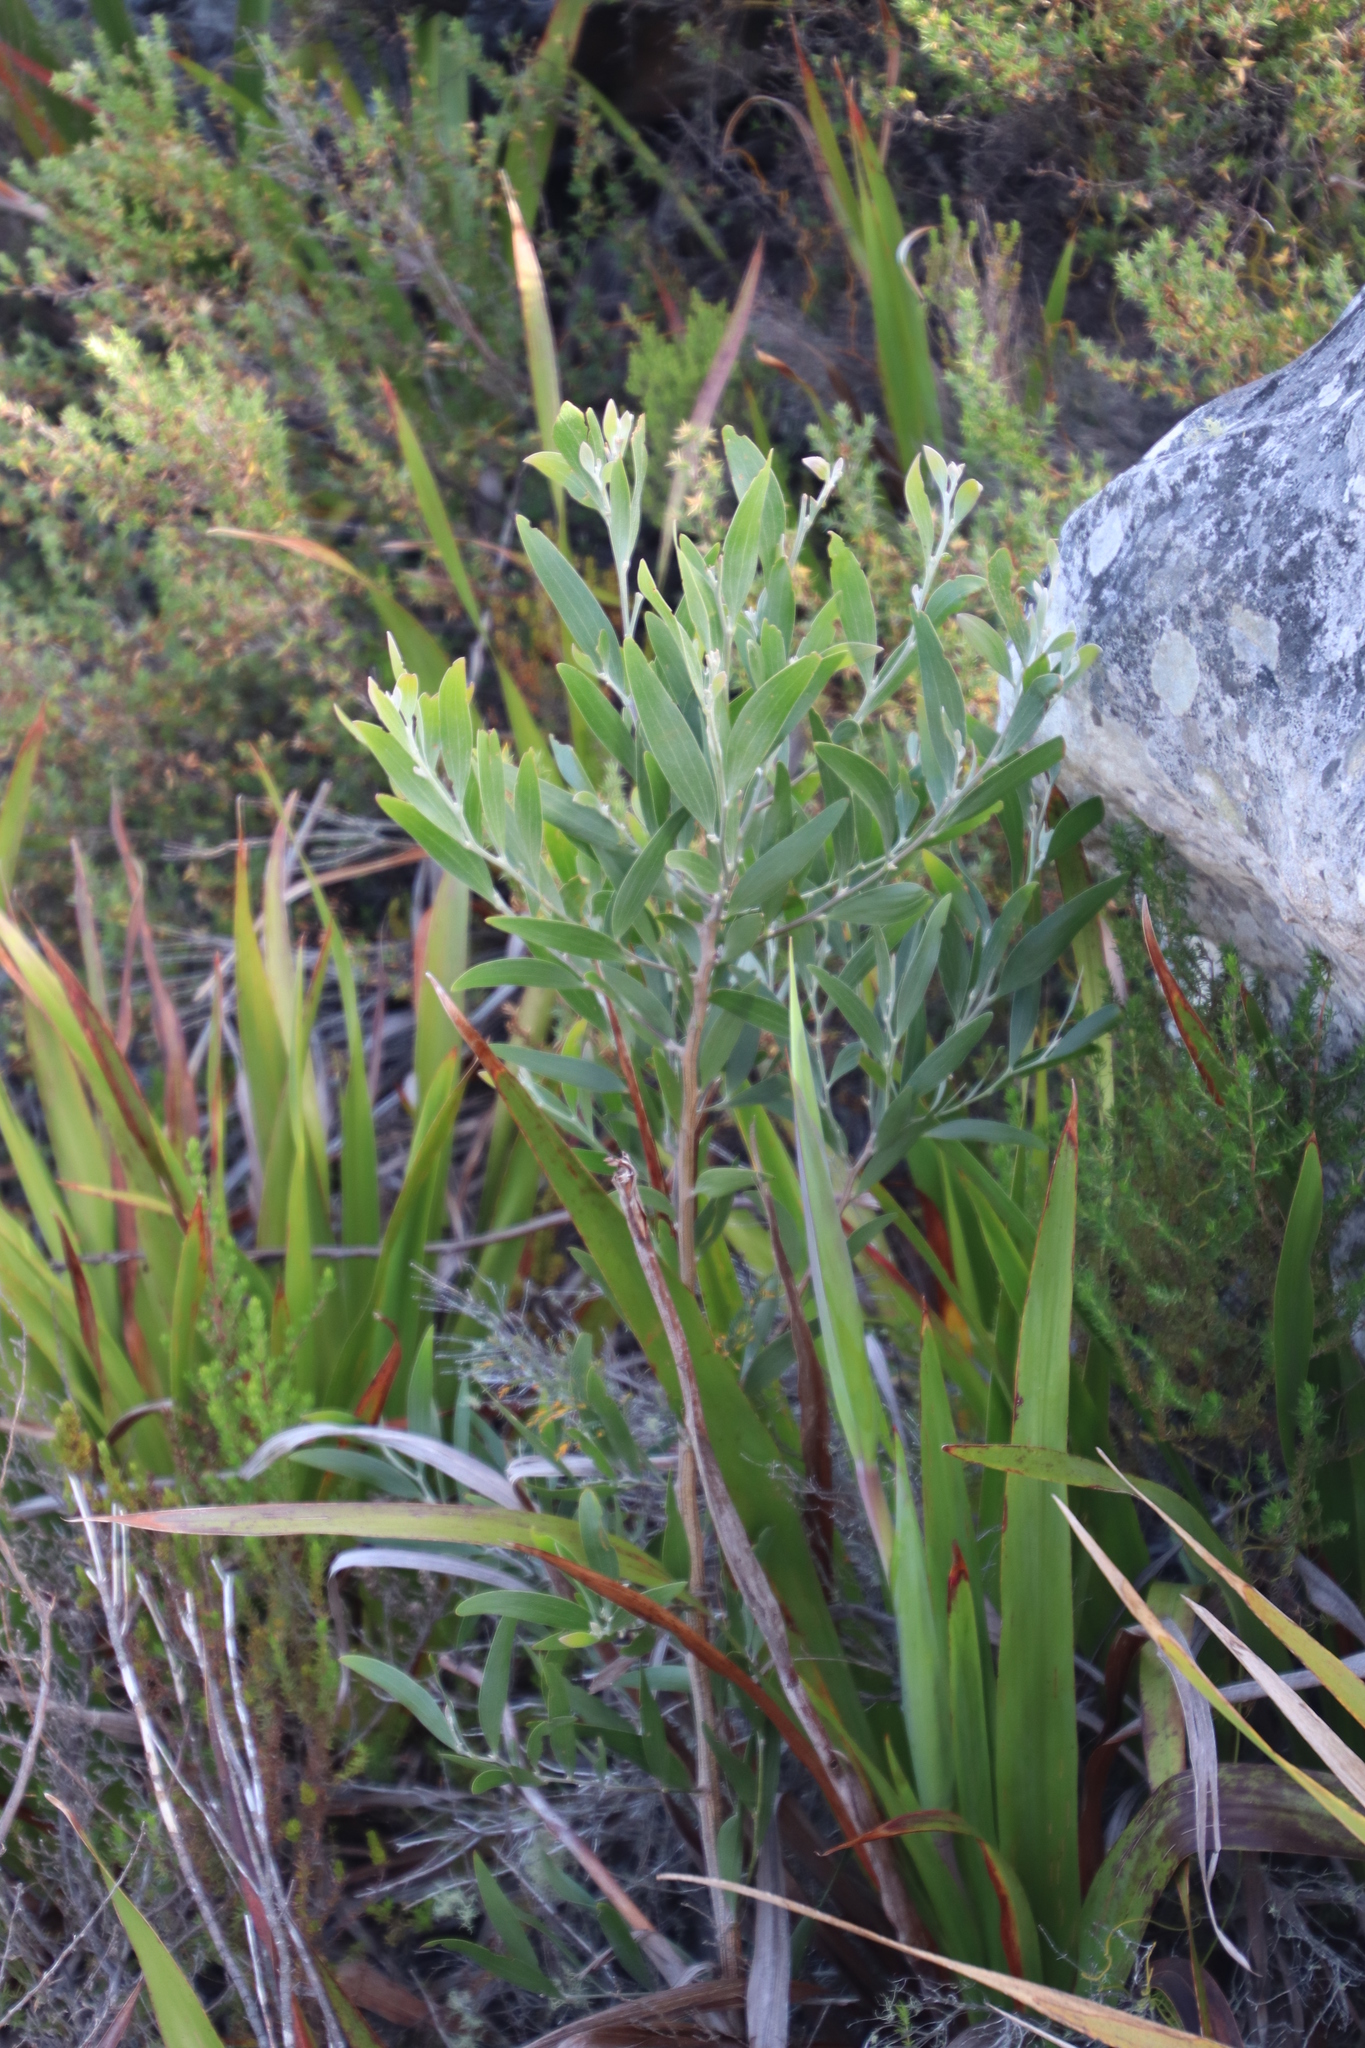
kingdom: Plantae
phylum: Tracheophyta
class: Magnoliopsida
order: Fabales
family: Fabaceae
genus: Acacia
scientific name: Acacia melanoxylon
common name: Blackwood
